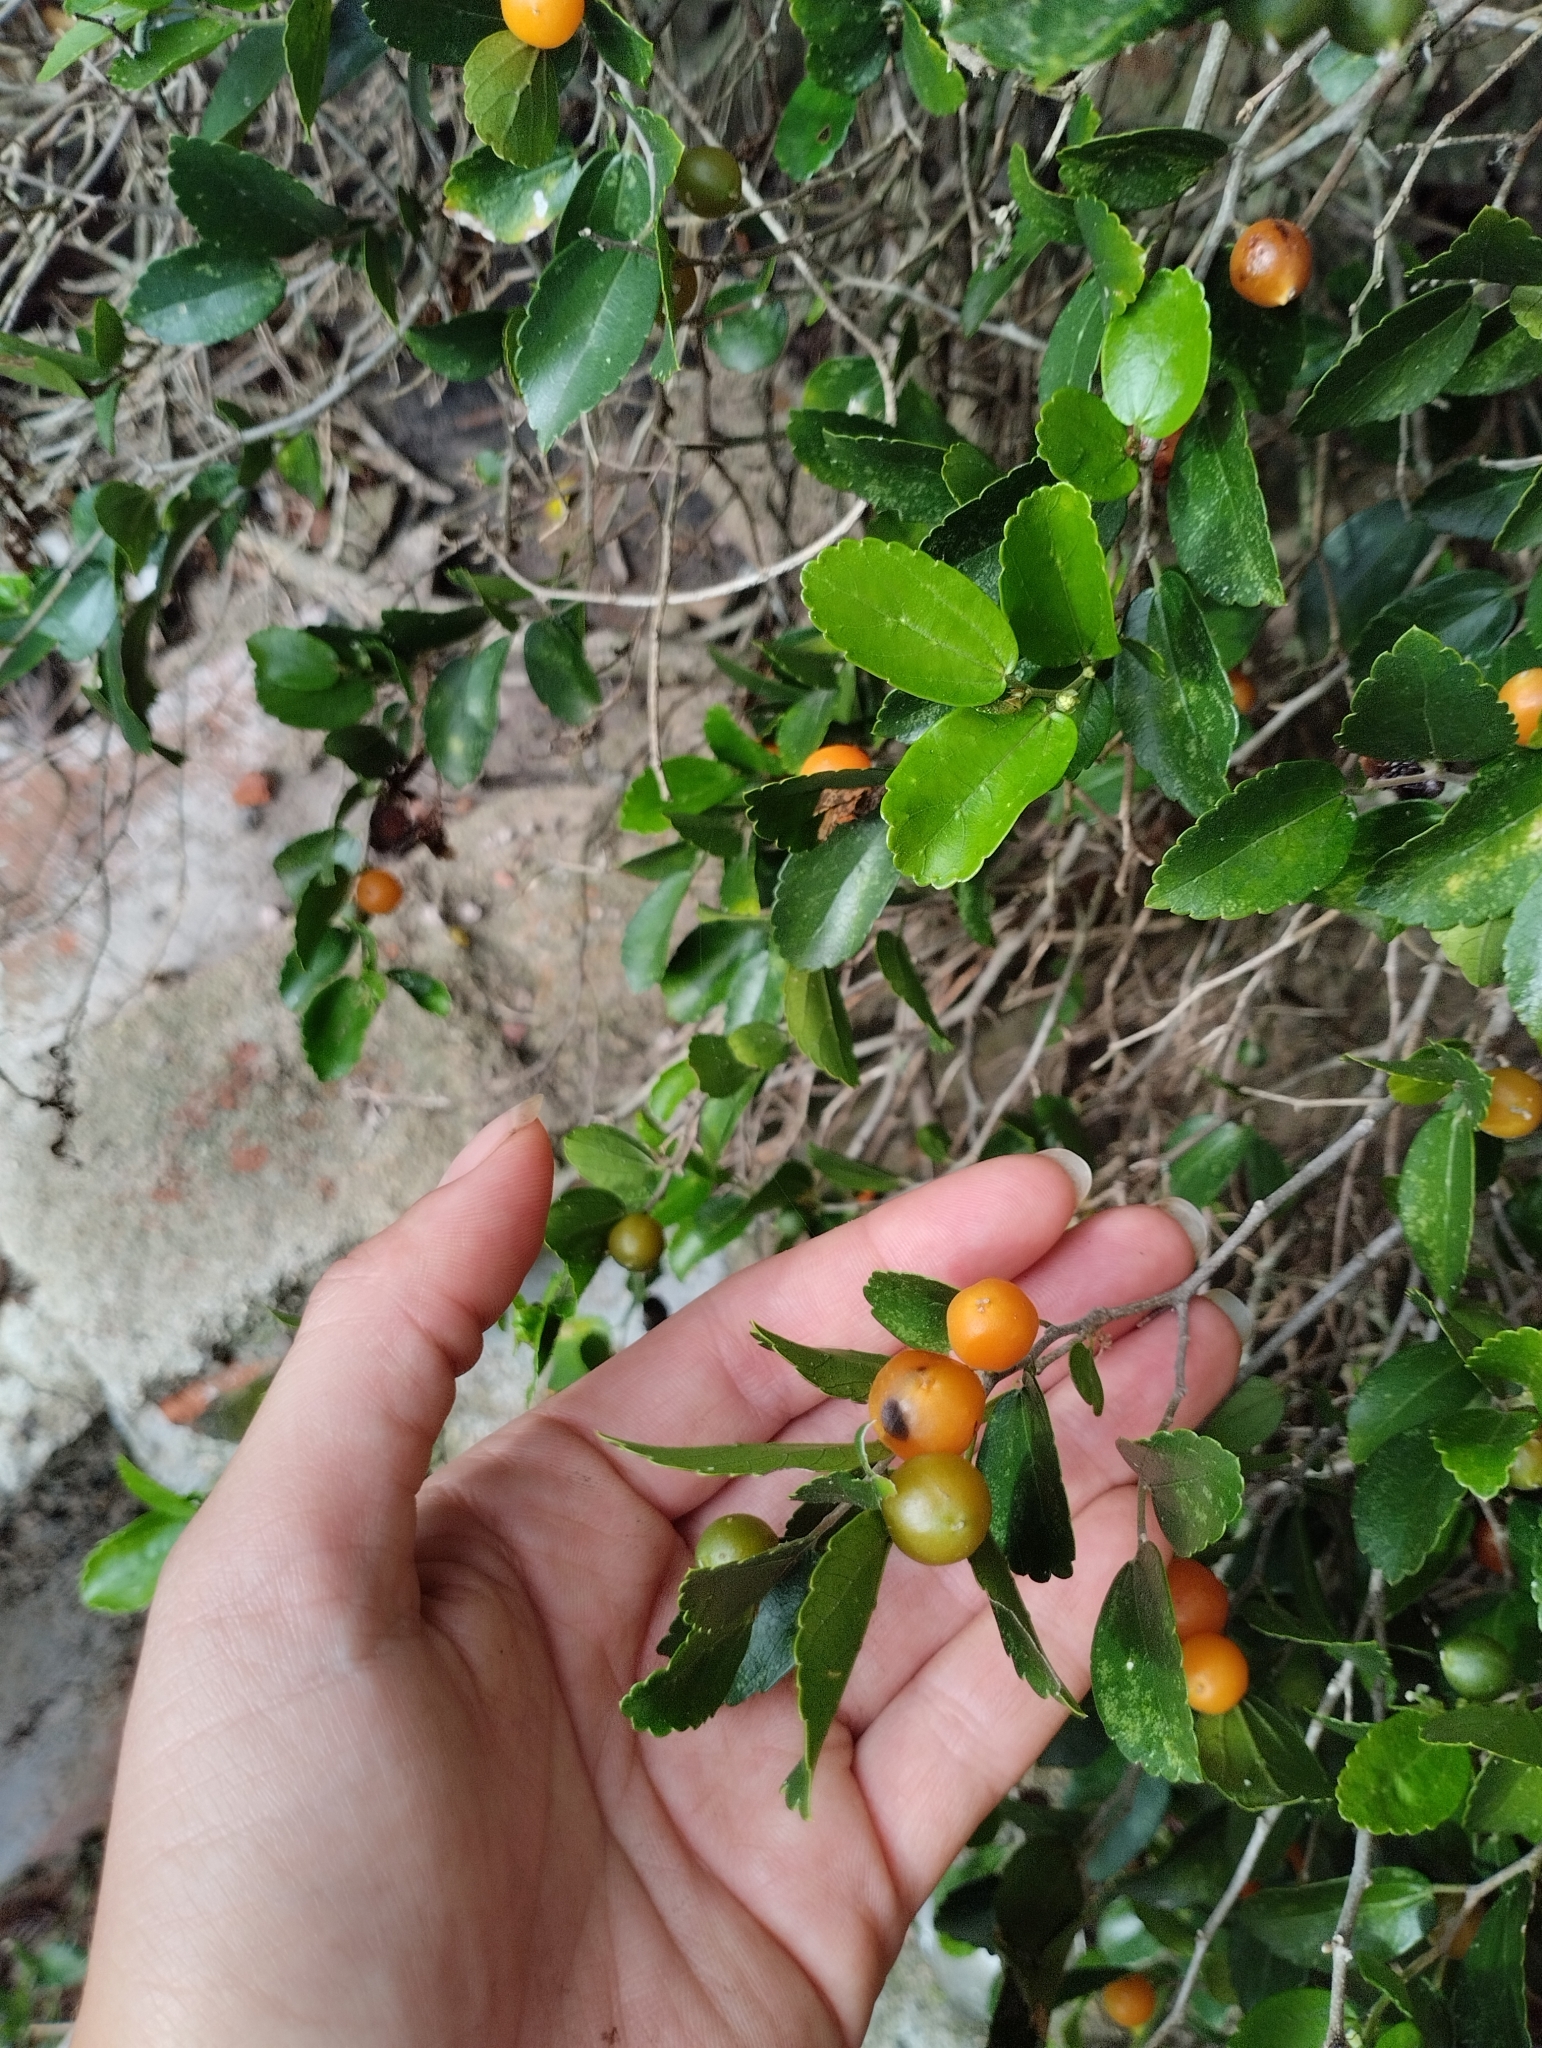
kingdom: Plantae
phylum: Tracheophyta
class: Magnoliopsida
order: Rosales
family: Cannabaceae
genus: Celtis
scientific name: Celtis iguanaea
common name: Iguana hackberry
